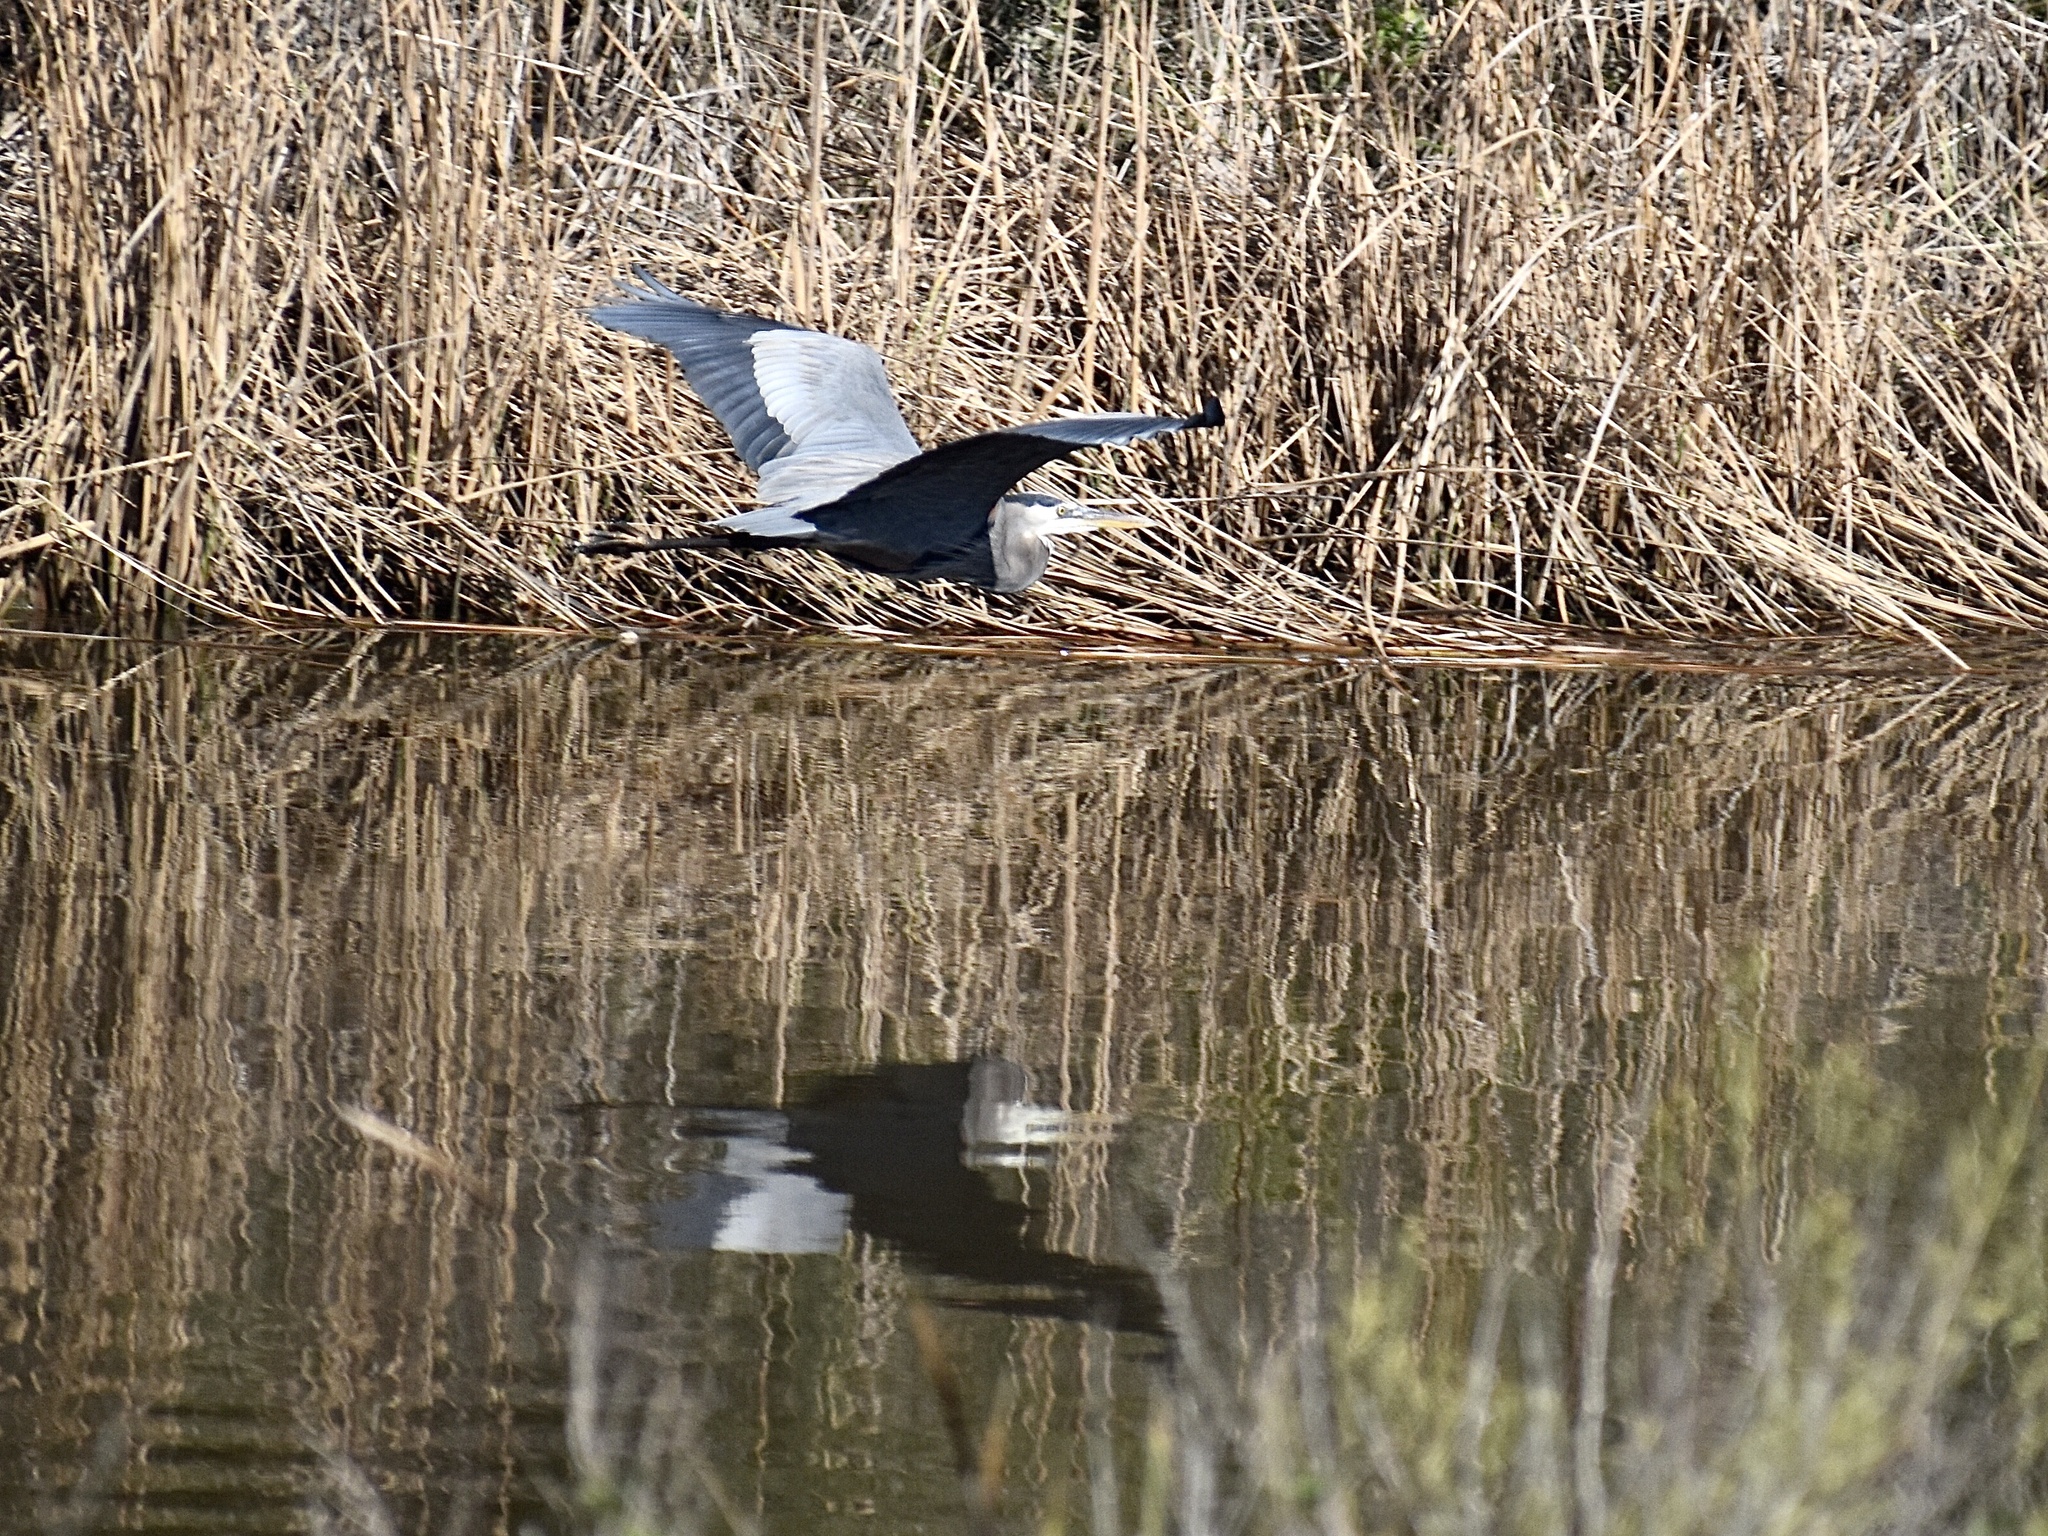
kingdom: Animalia
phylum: Chordata
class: Aves
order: Pelecaniformes
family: Ardeidae
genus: Ardea
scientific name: Ardea herodias
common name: Great blue heron
